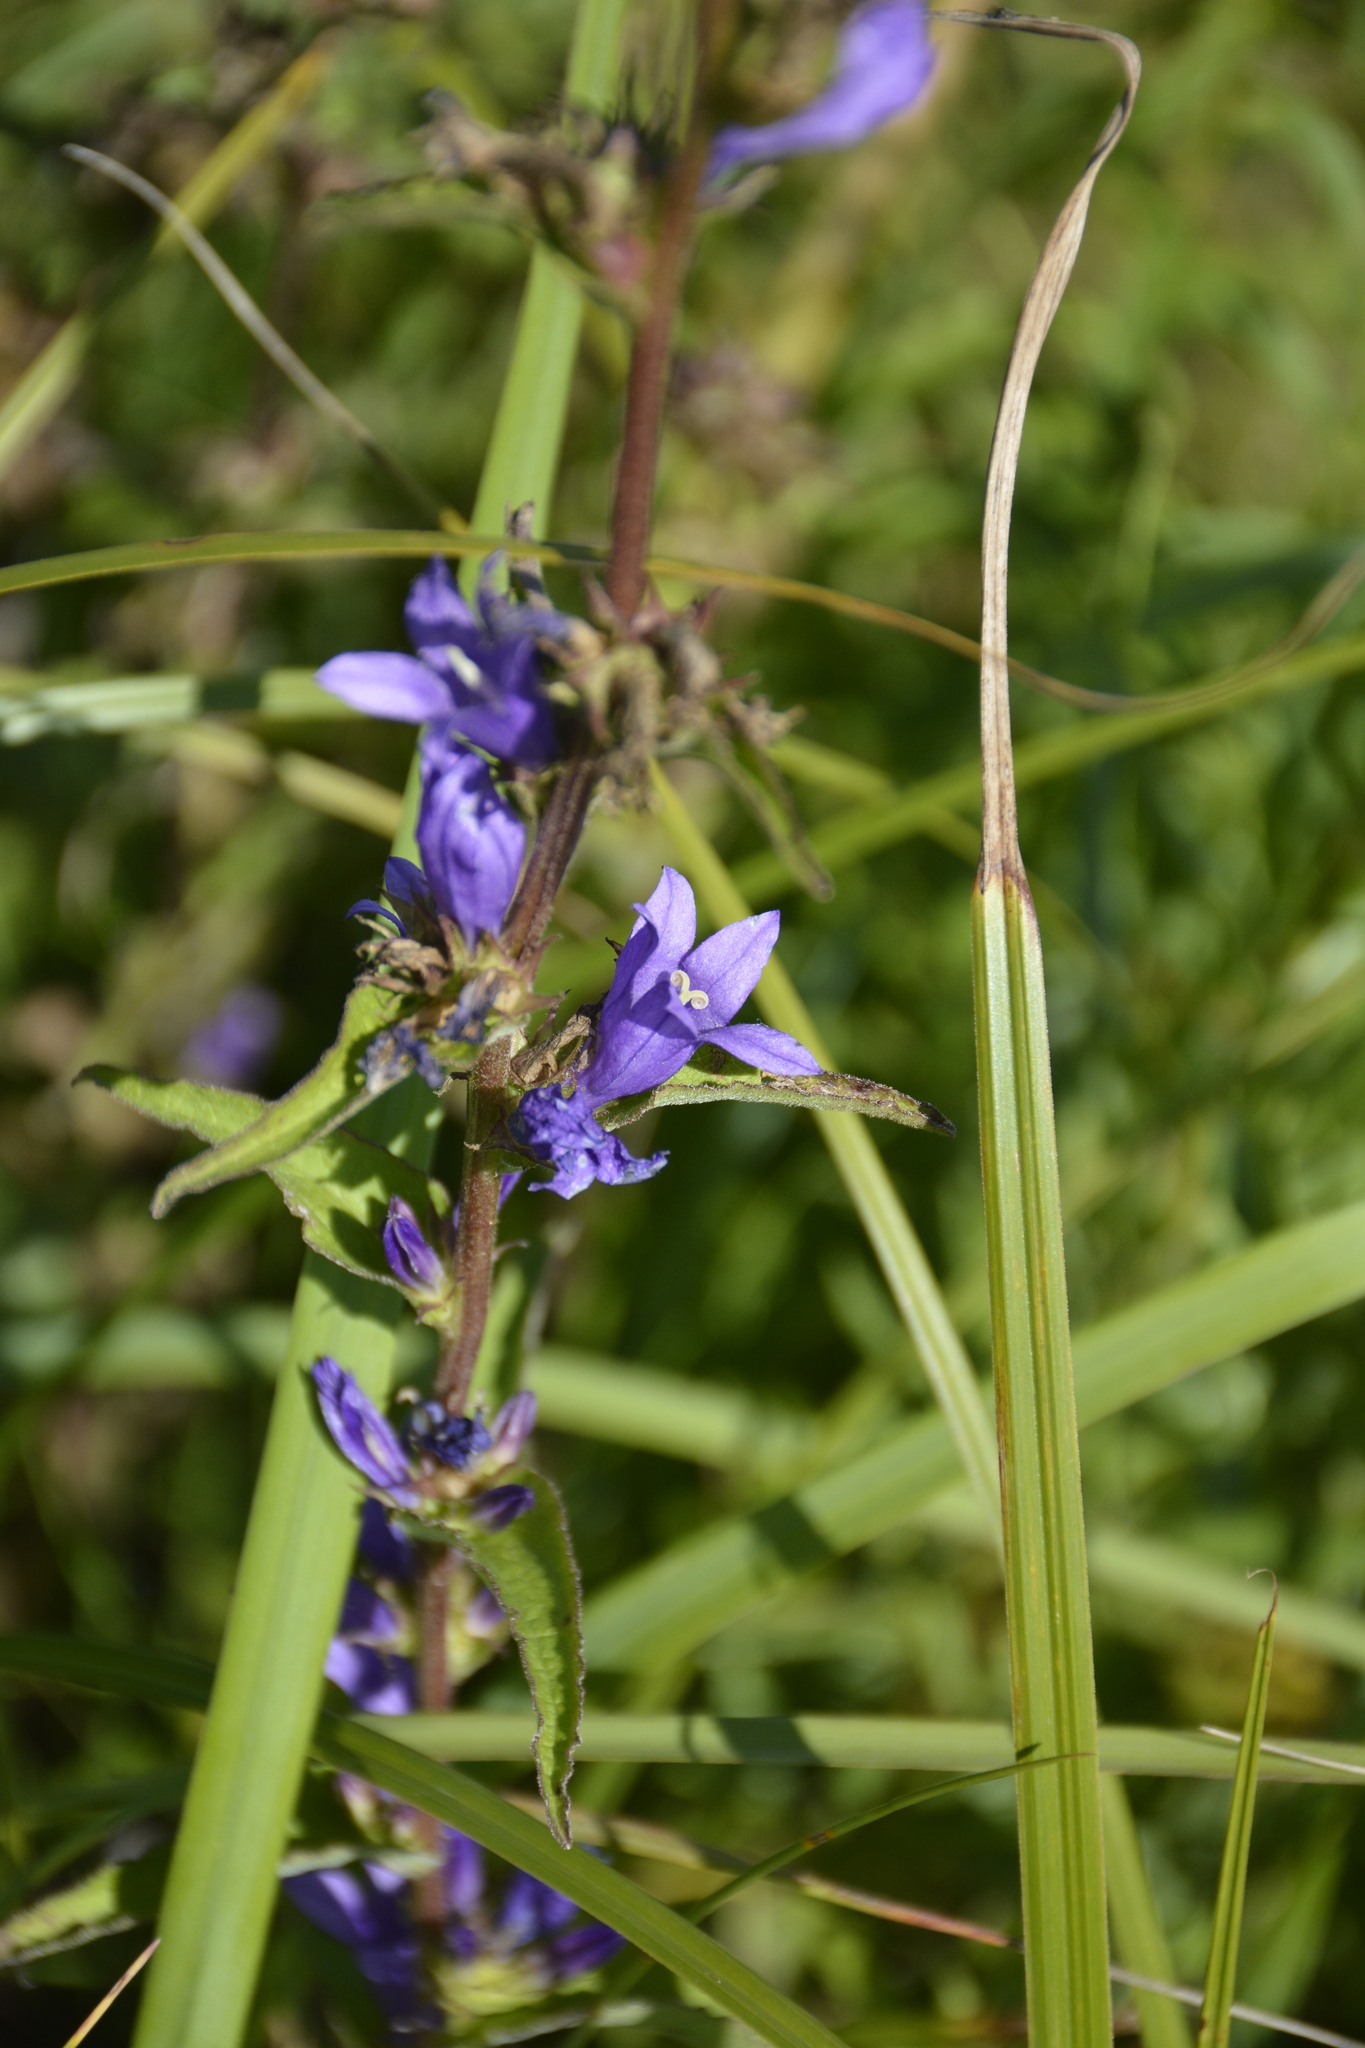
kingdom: Plantae
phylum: Tracheophyta
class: Magnoliopsida
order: Asterales
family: Campanulaceae
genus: Campanula
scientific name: Campanula glomerata
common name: Clustered bellflower
